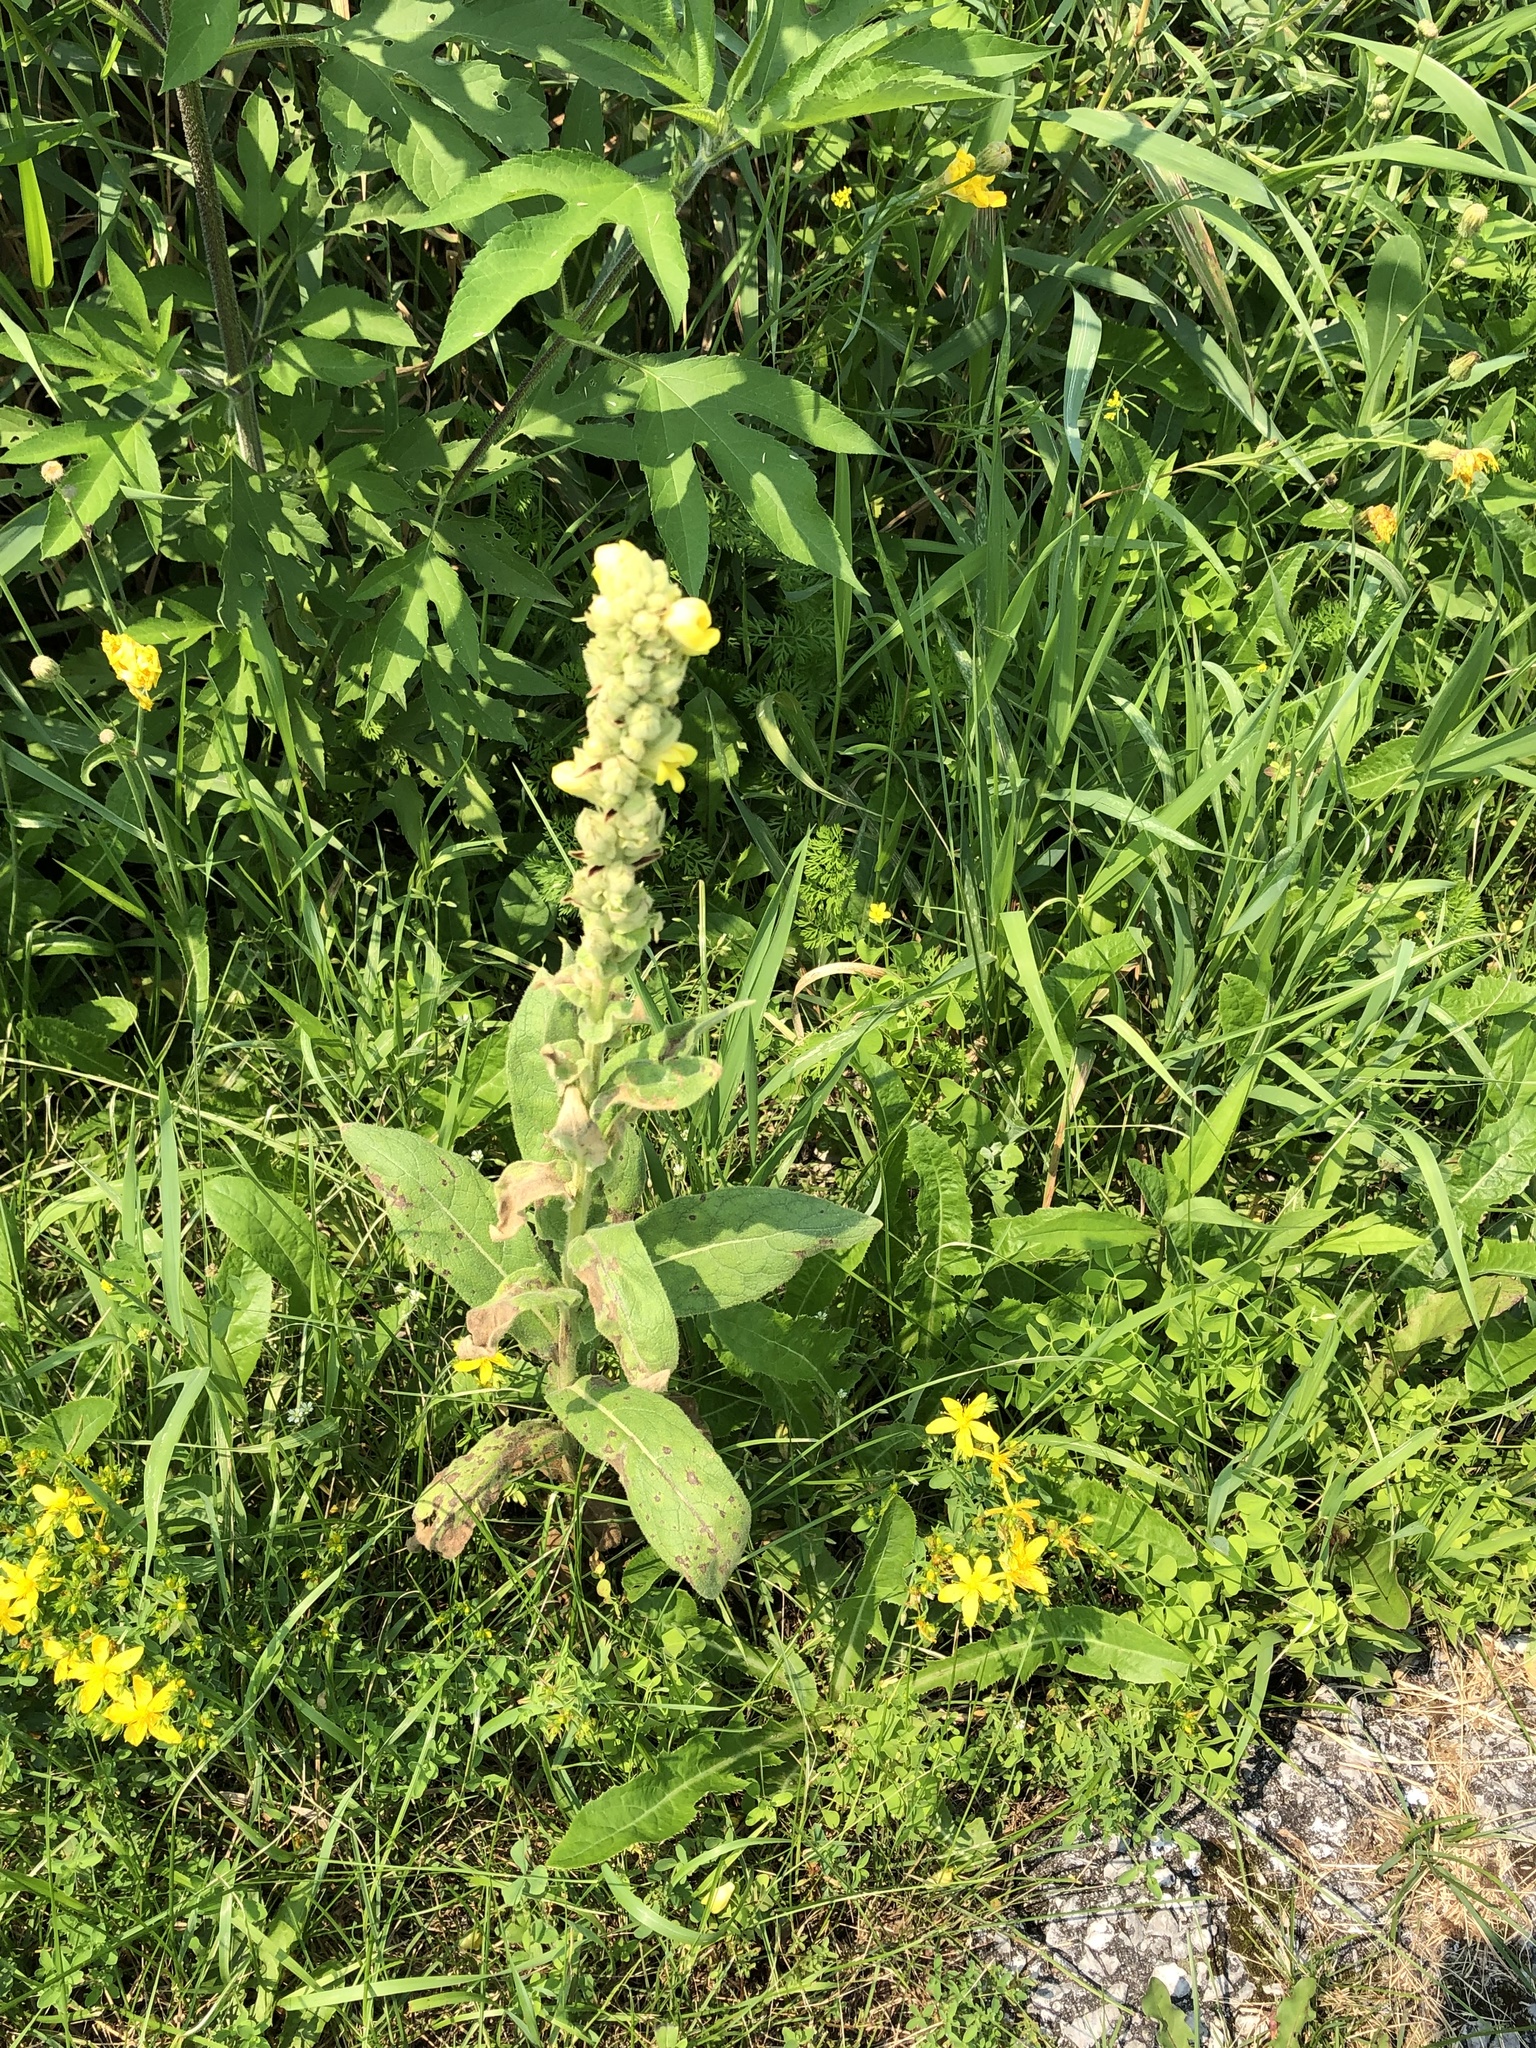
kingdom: Plantae
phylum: Tracheophyta
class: Magnoliopsida
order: Lamiales
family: Scrophulariaceae
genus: Verbascum
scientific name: Verbascum thapsus
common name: Common mullein
